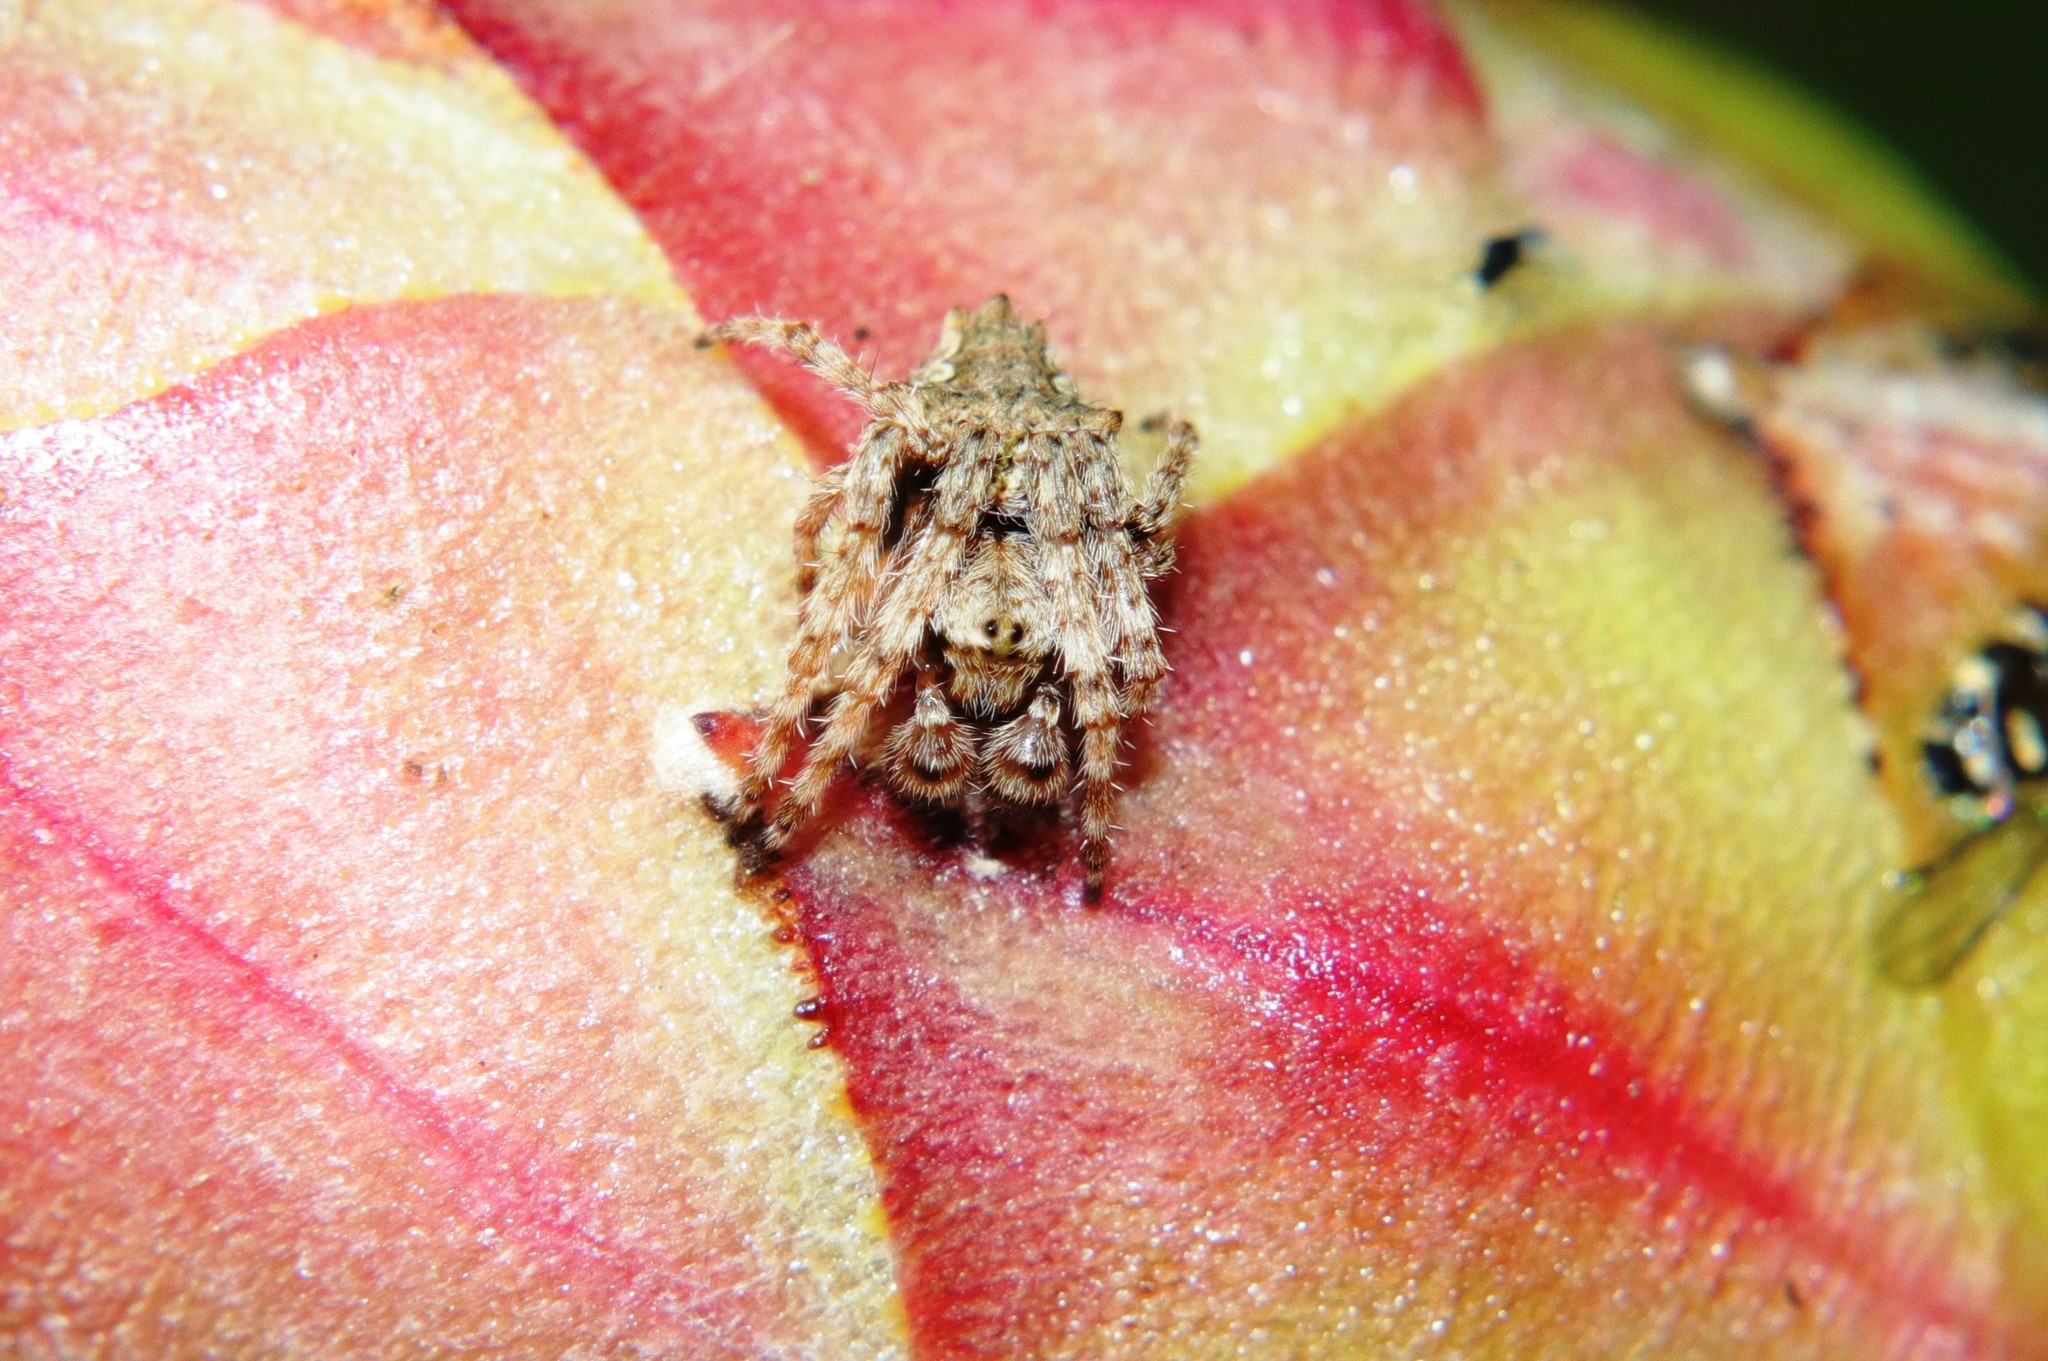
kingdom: Animalia
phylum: Arthropoda
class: Arachnida
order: Araneae
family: Araneidae
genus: Eriophora
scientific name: Eriophora pustulosa
